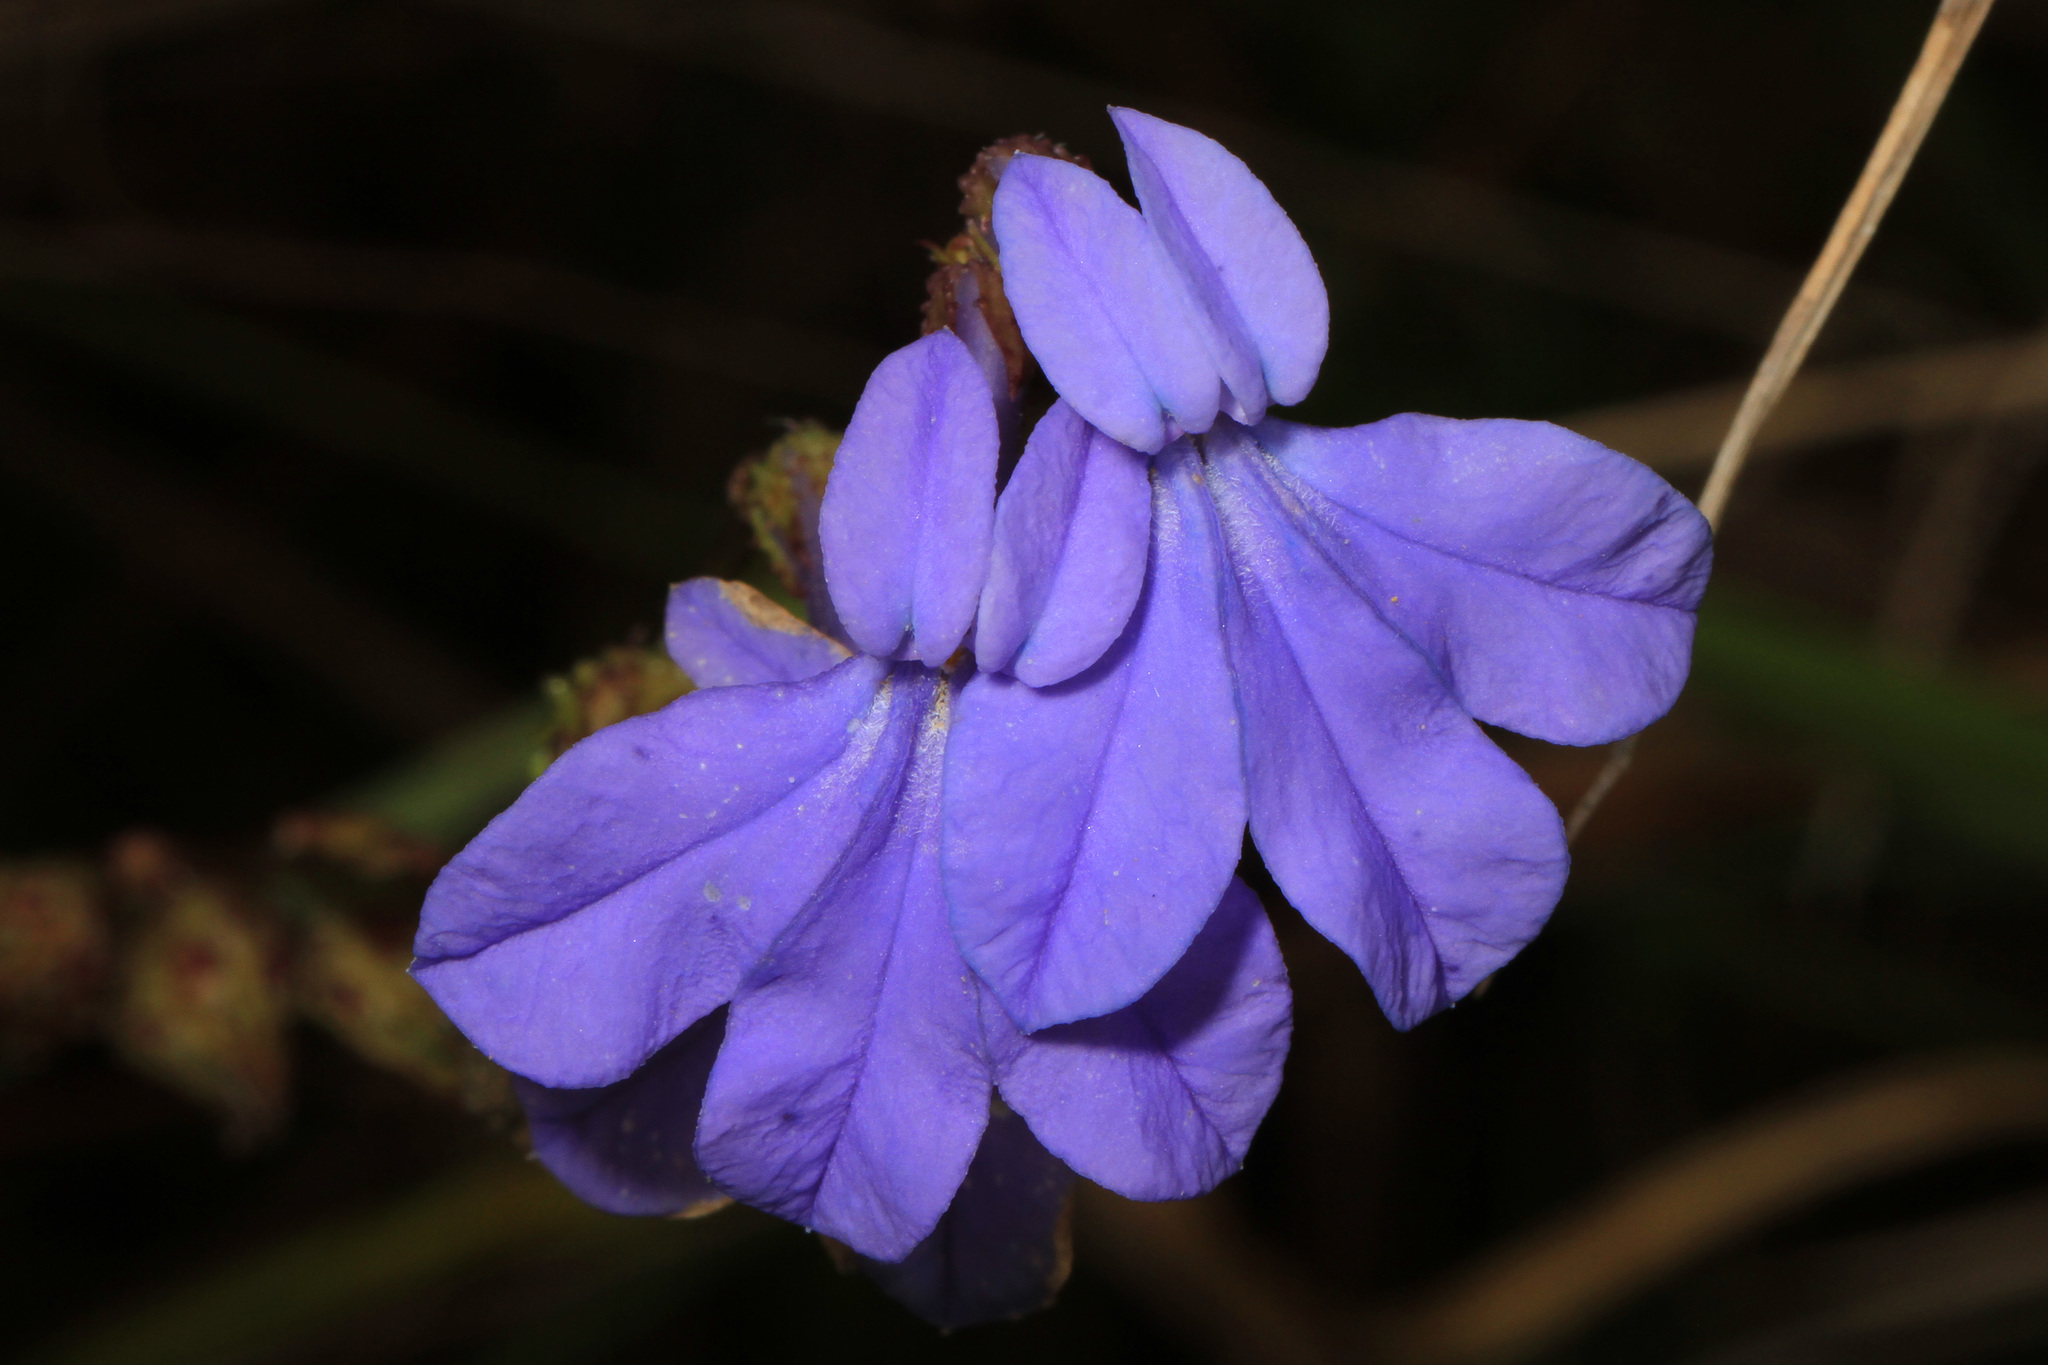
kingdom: Plantae
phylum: Tracheophyta
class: Magnoliopsida
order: Asterales
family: Campanulaceae
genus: Lobelia
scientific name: Lobelia glandulosa
